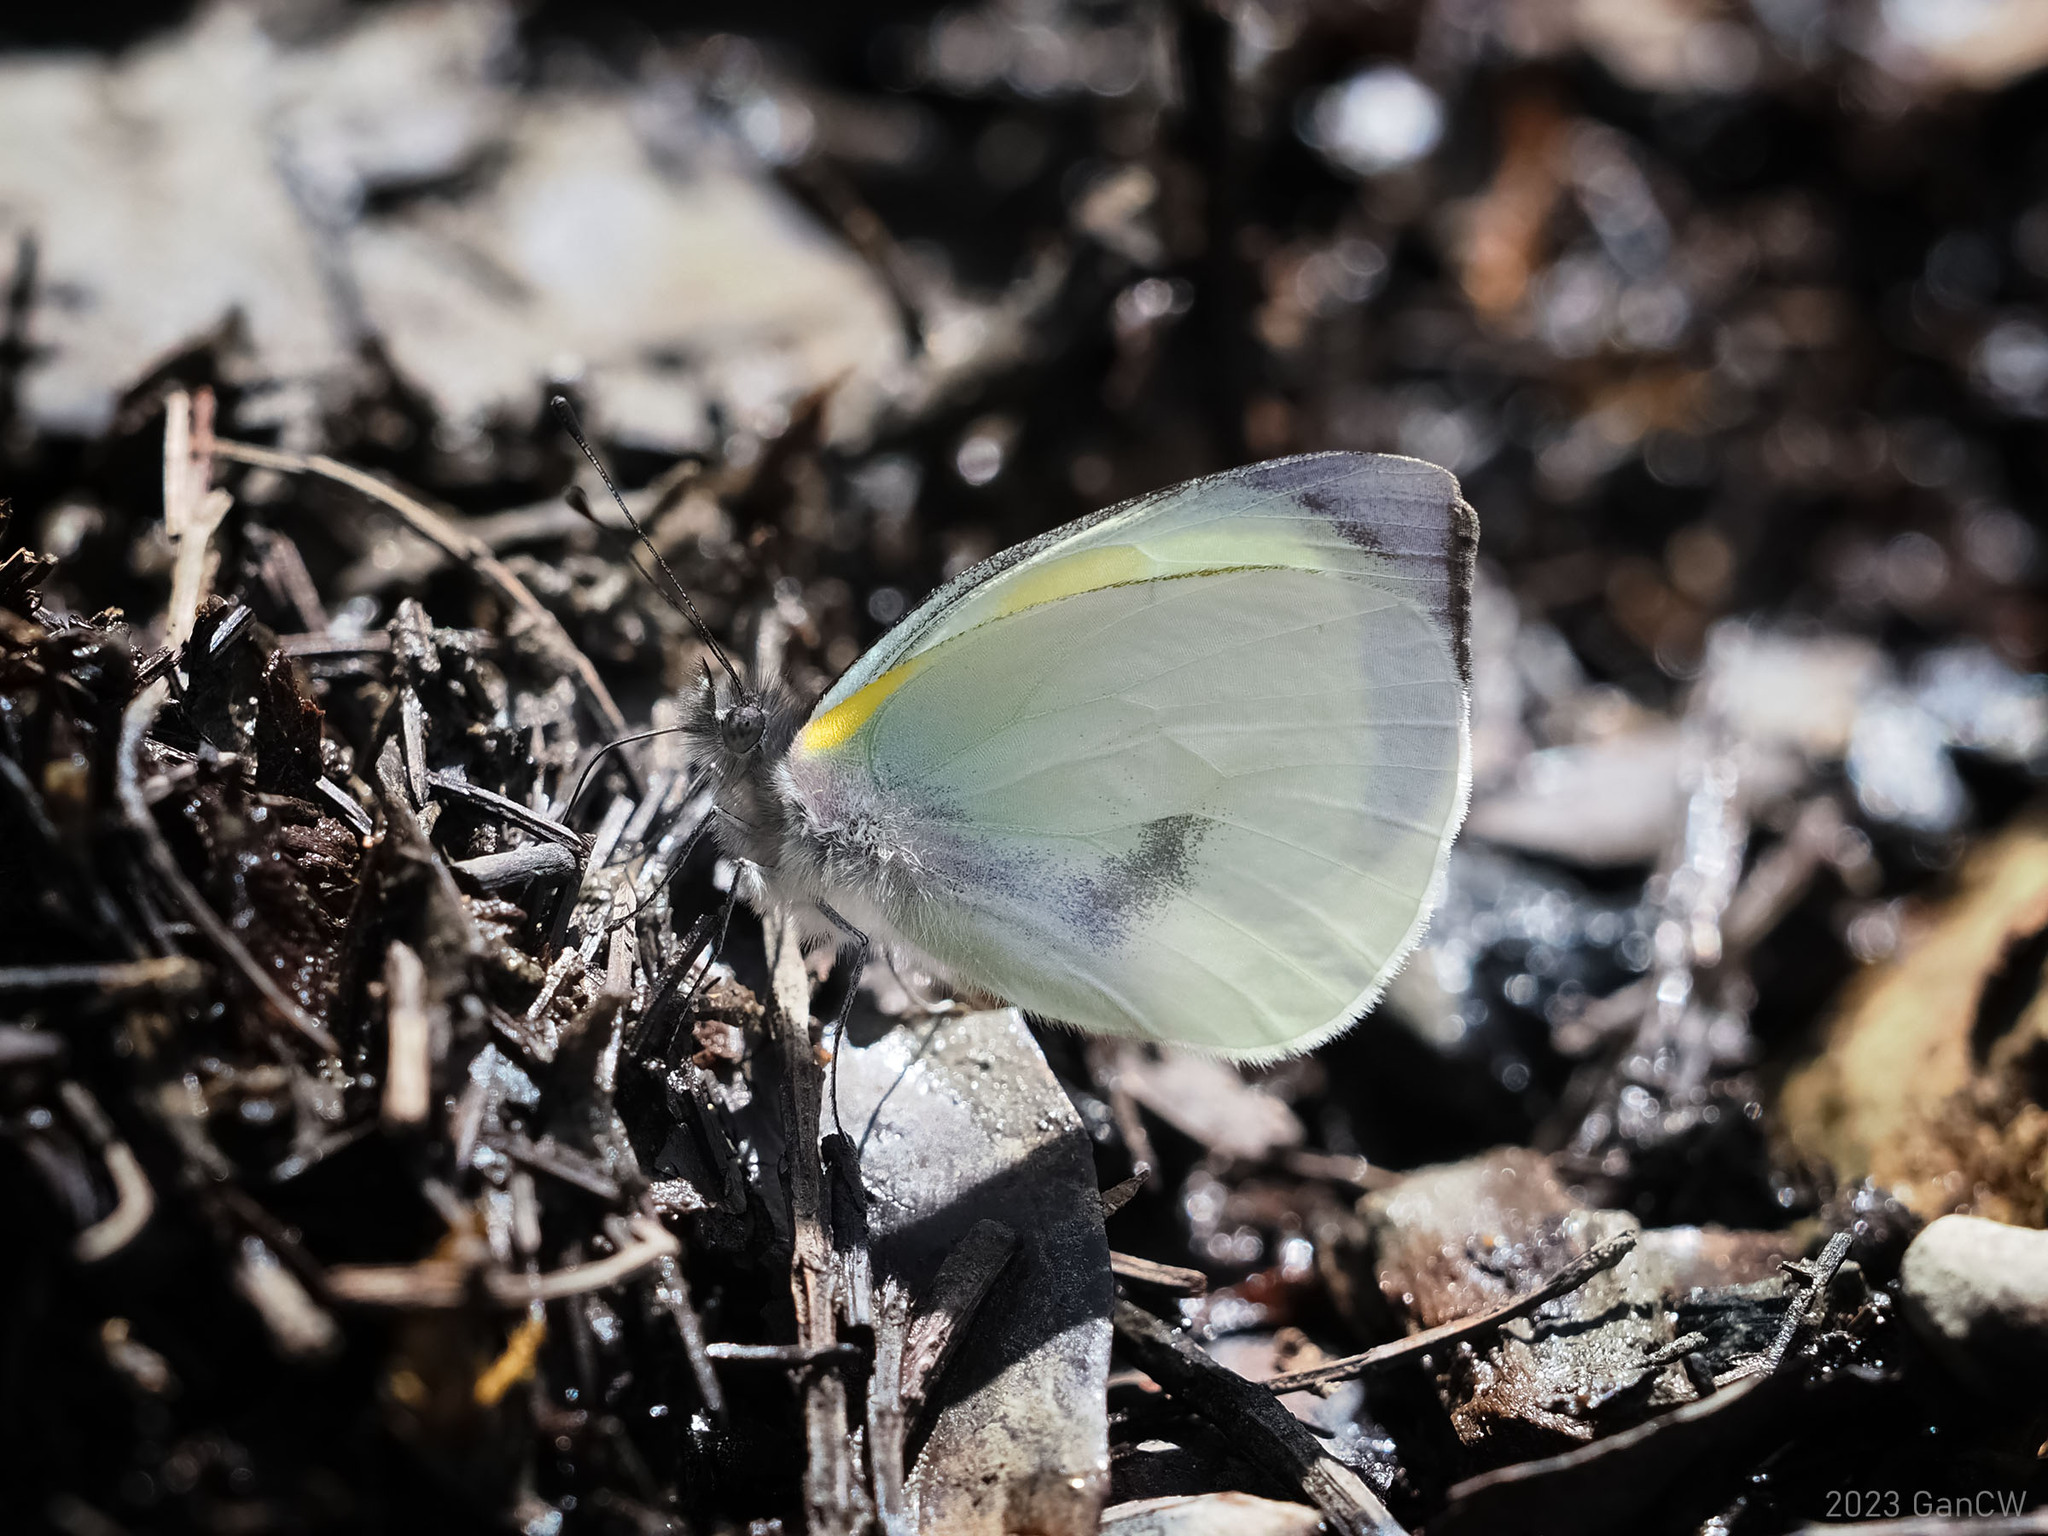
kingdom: Animalia
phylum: Arthropoda
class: Insecta
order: Lepidoptera
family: Pieridae
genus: Leuciacria
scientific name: Leuciacria acuta
